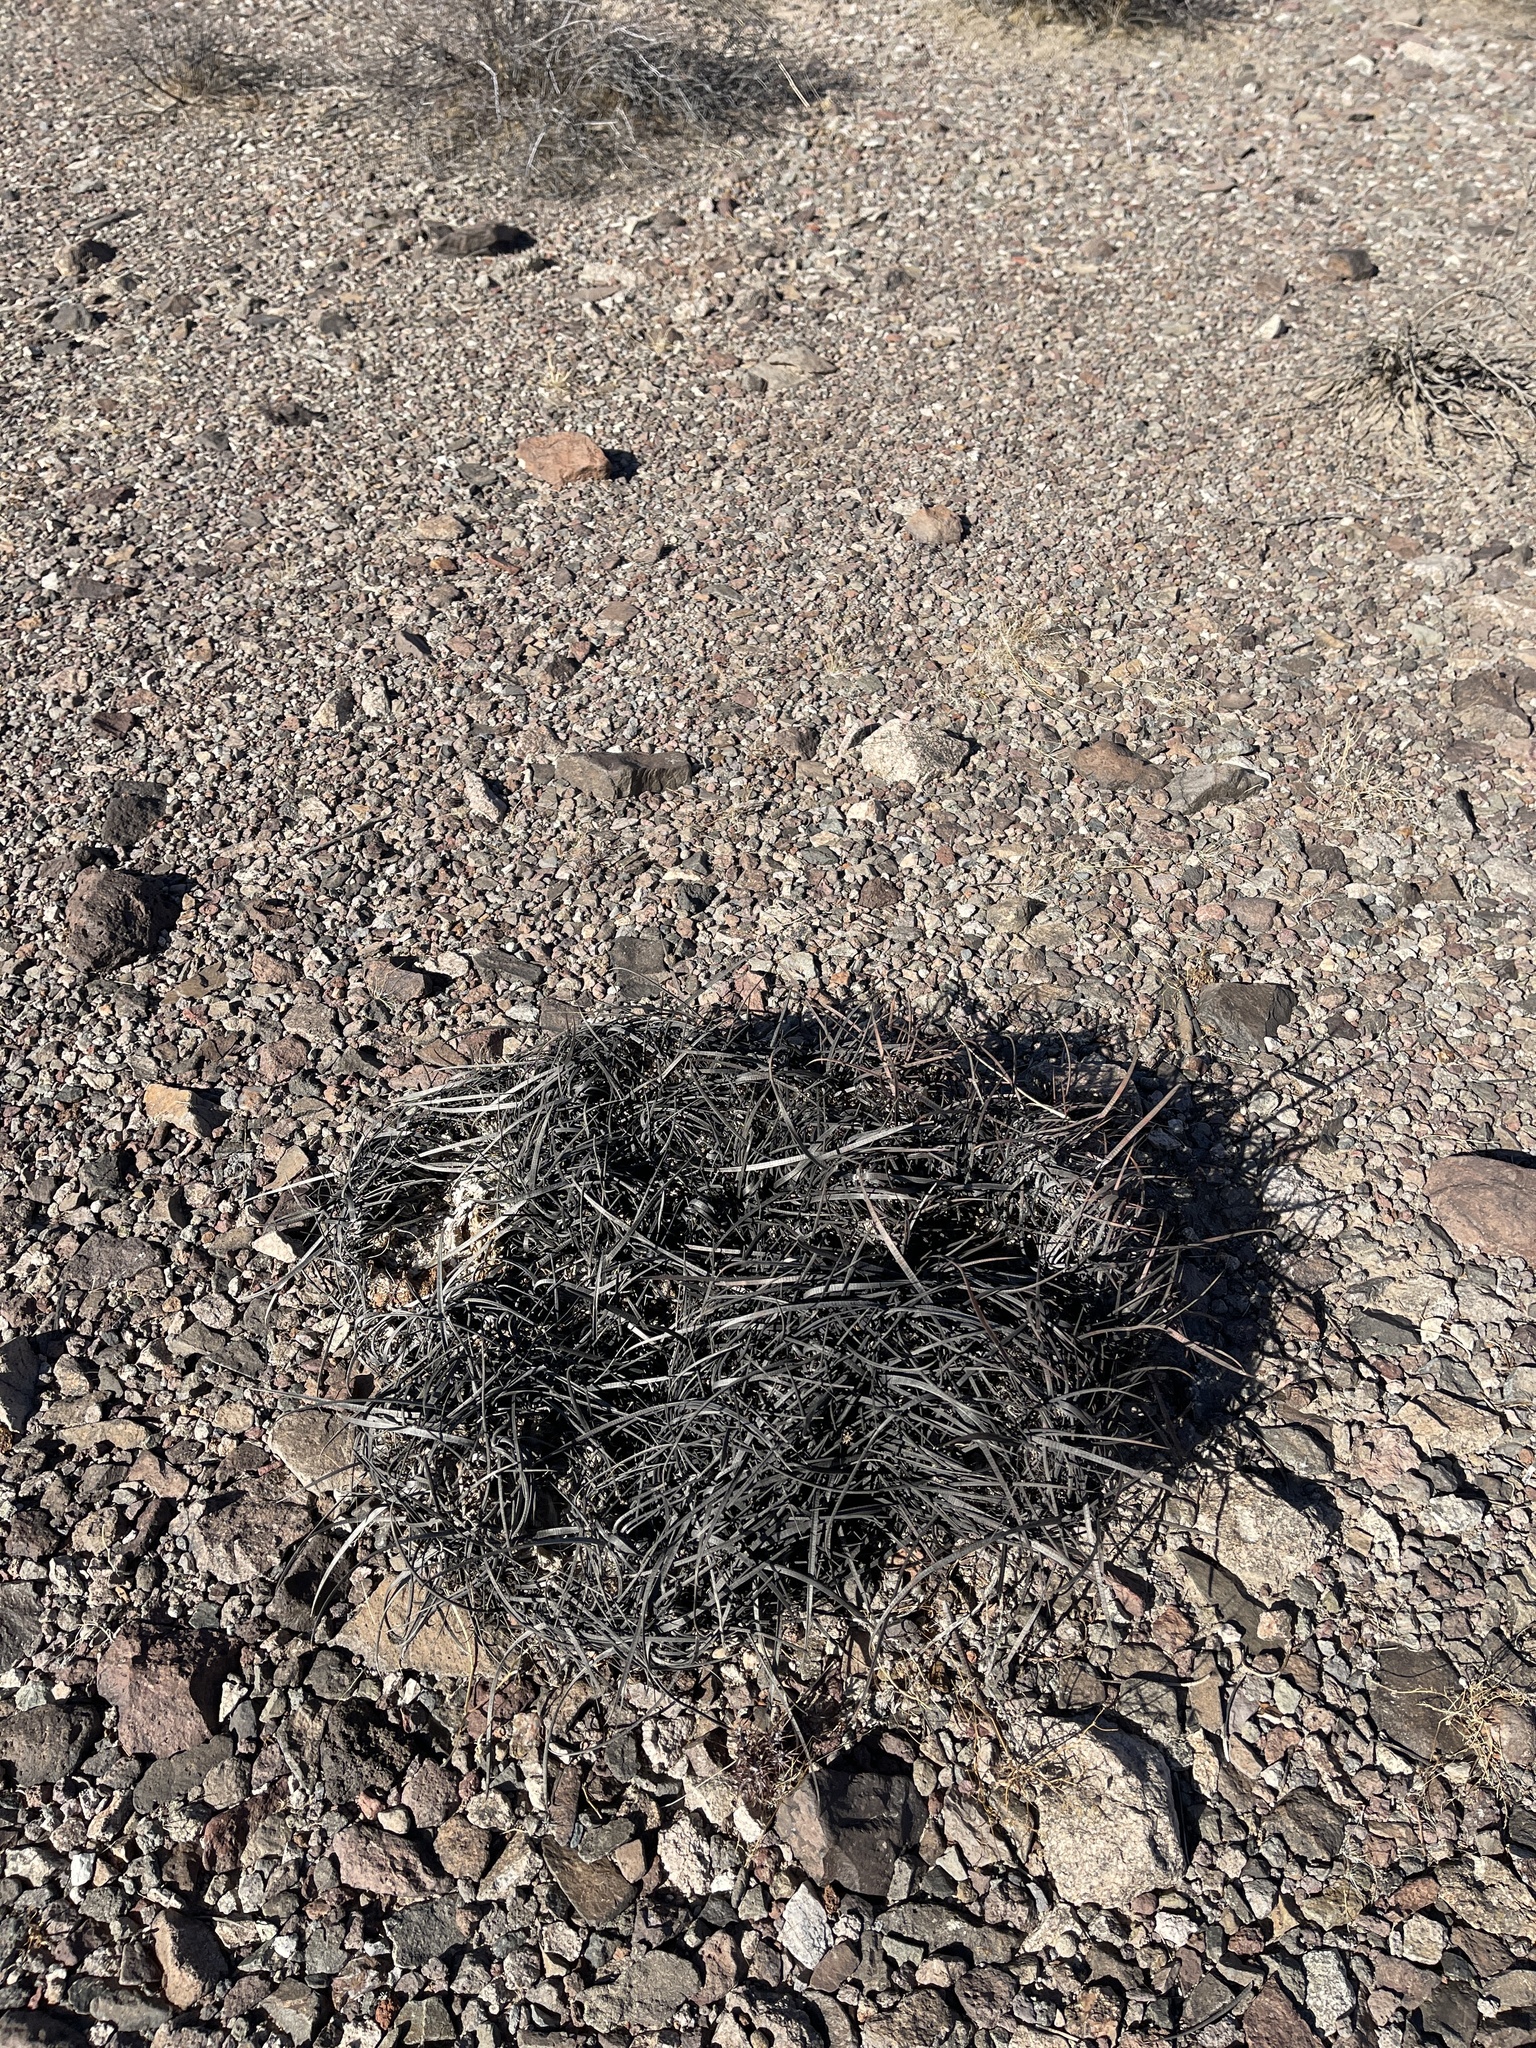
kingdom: Plantae
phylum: Tracheophyta
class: Magnoliopsida
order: Caryophyllales
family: Cactaceae
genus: Ferocactus
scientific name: Ferocactus cylindraceus
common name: California barrel cactus
